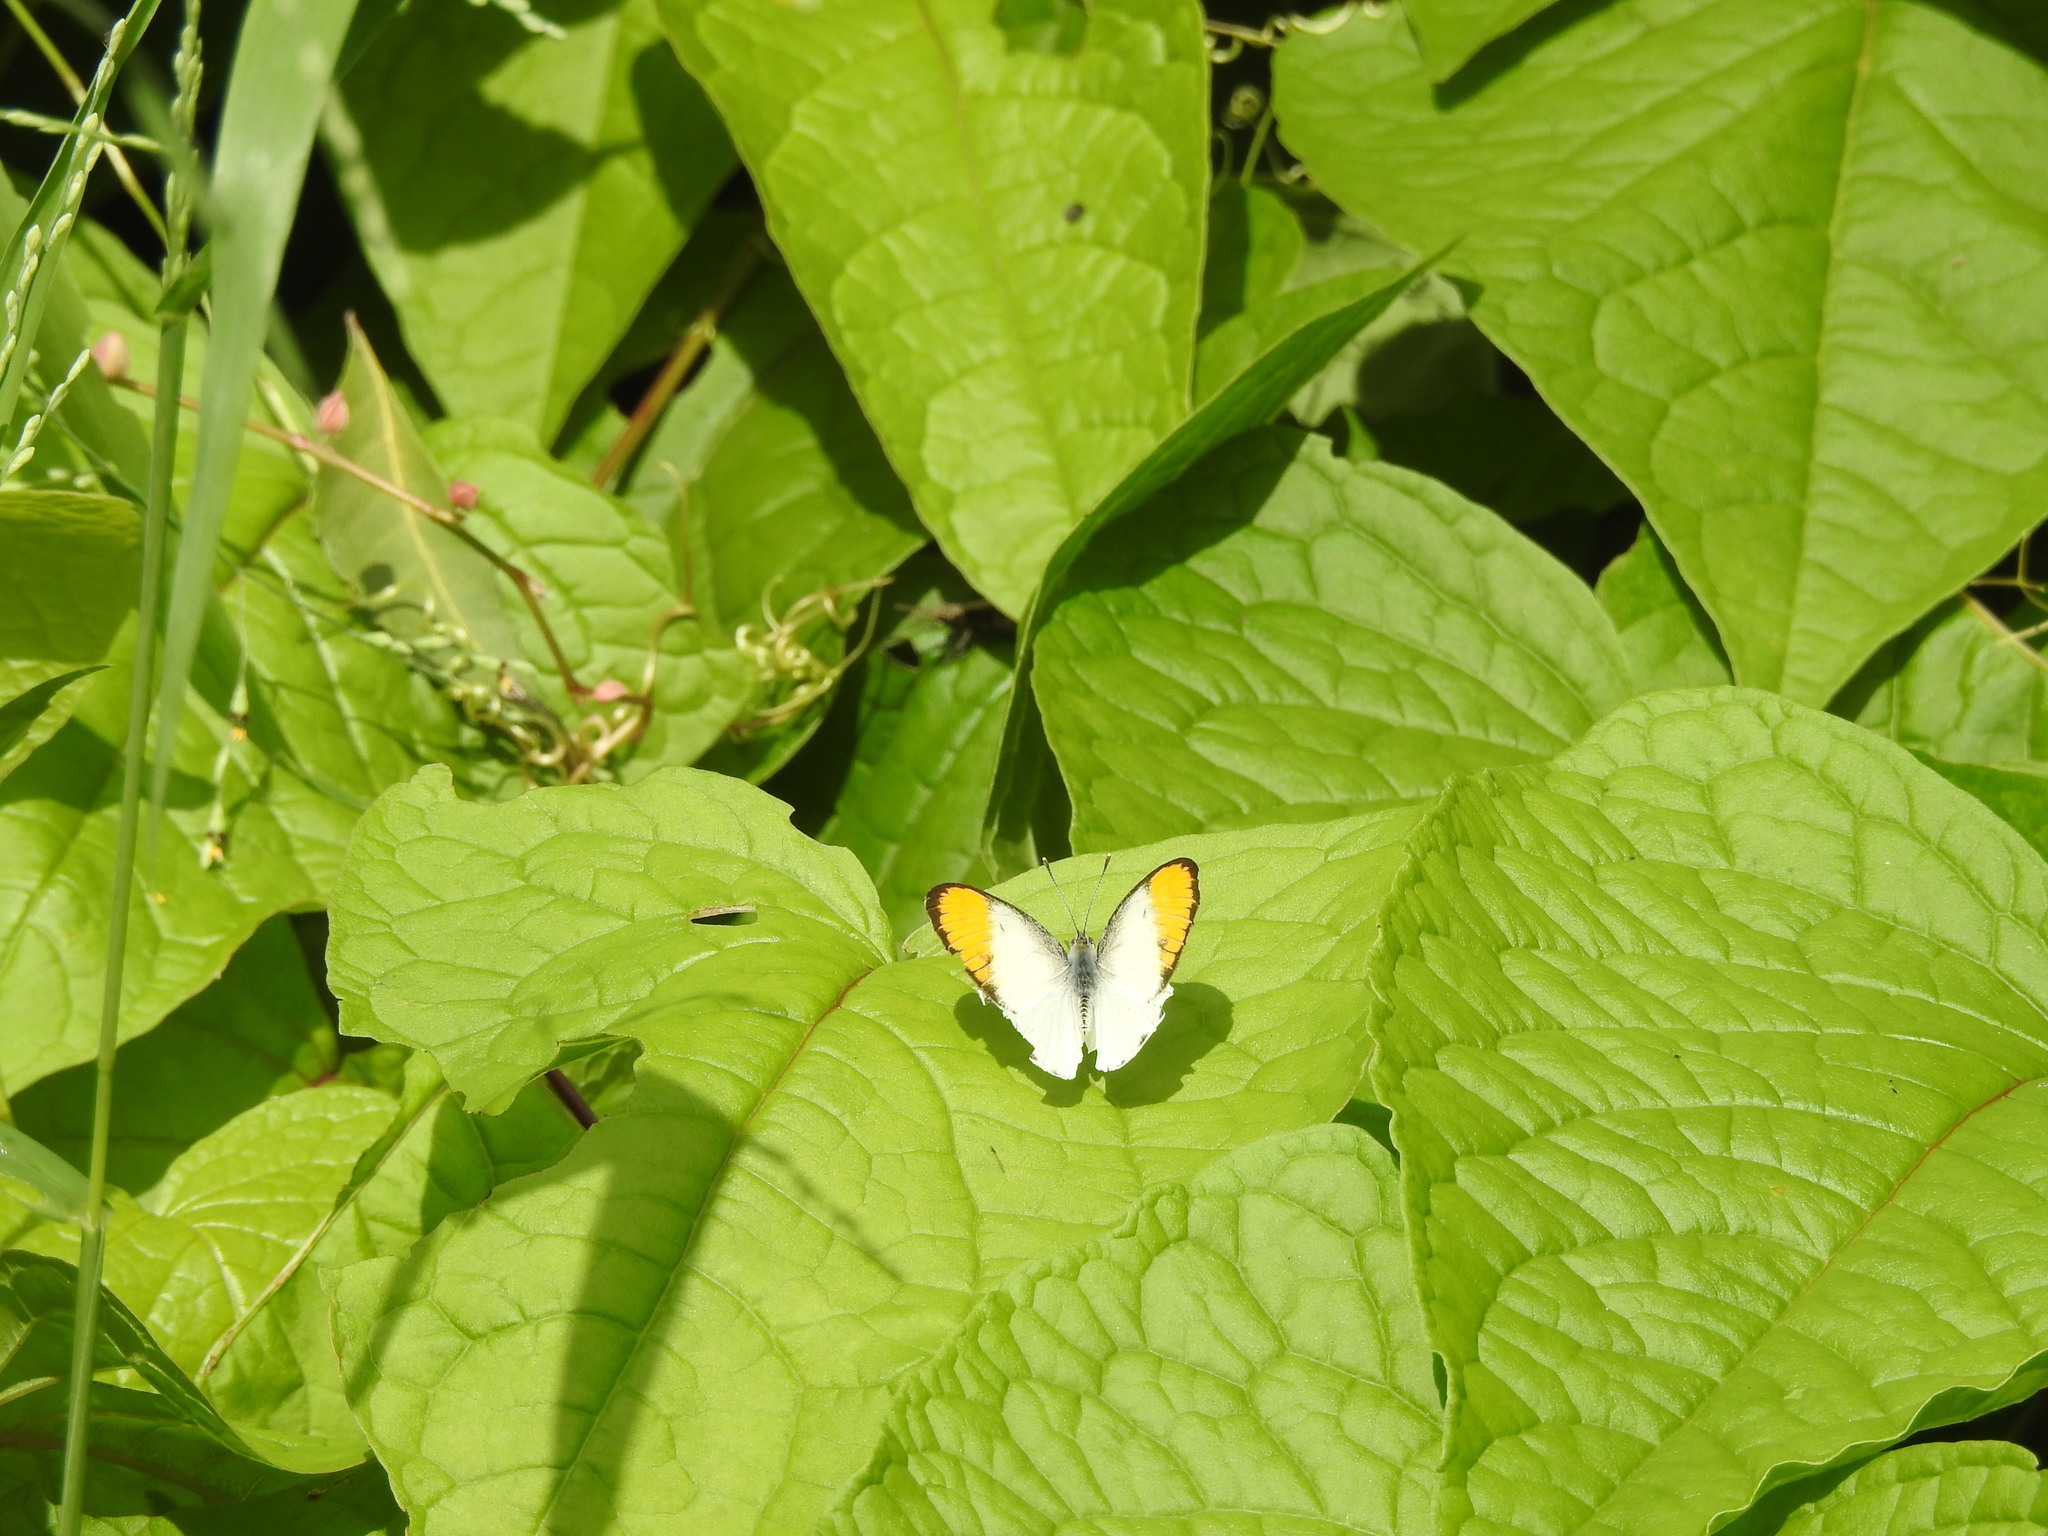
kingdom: Animalia
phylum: Arthropoda
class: Insecta
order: Lepidoptera
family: Pieridae
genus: Colotis
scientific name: Colotis aurora
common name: Plain orange-tip
